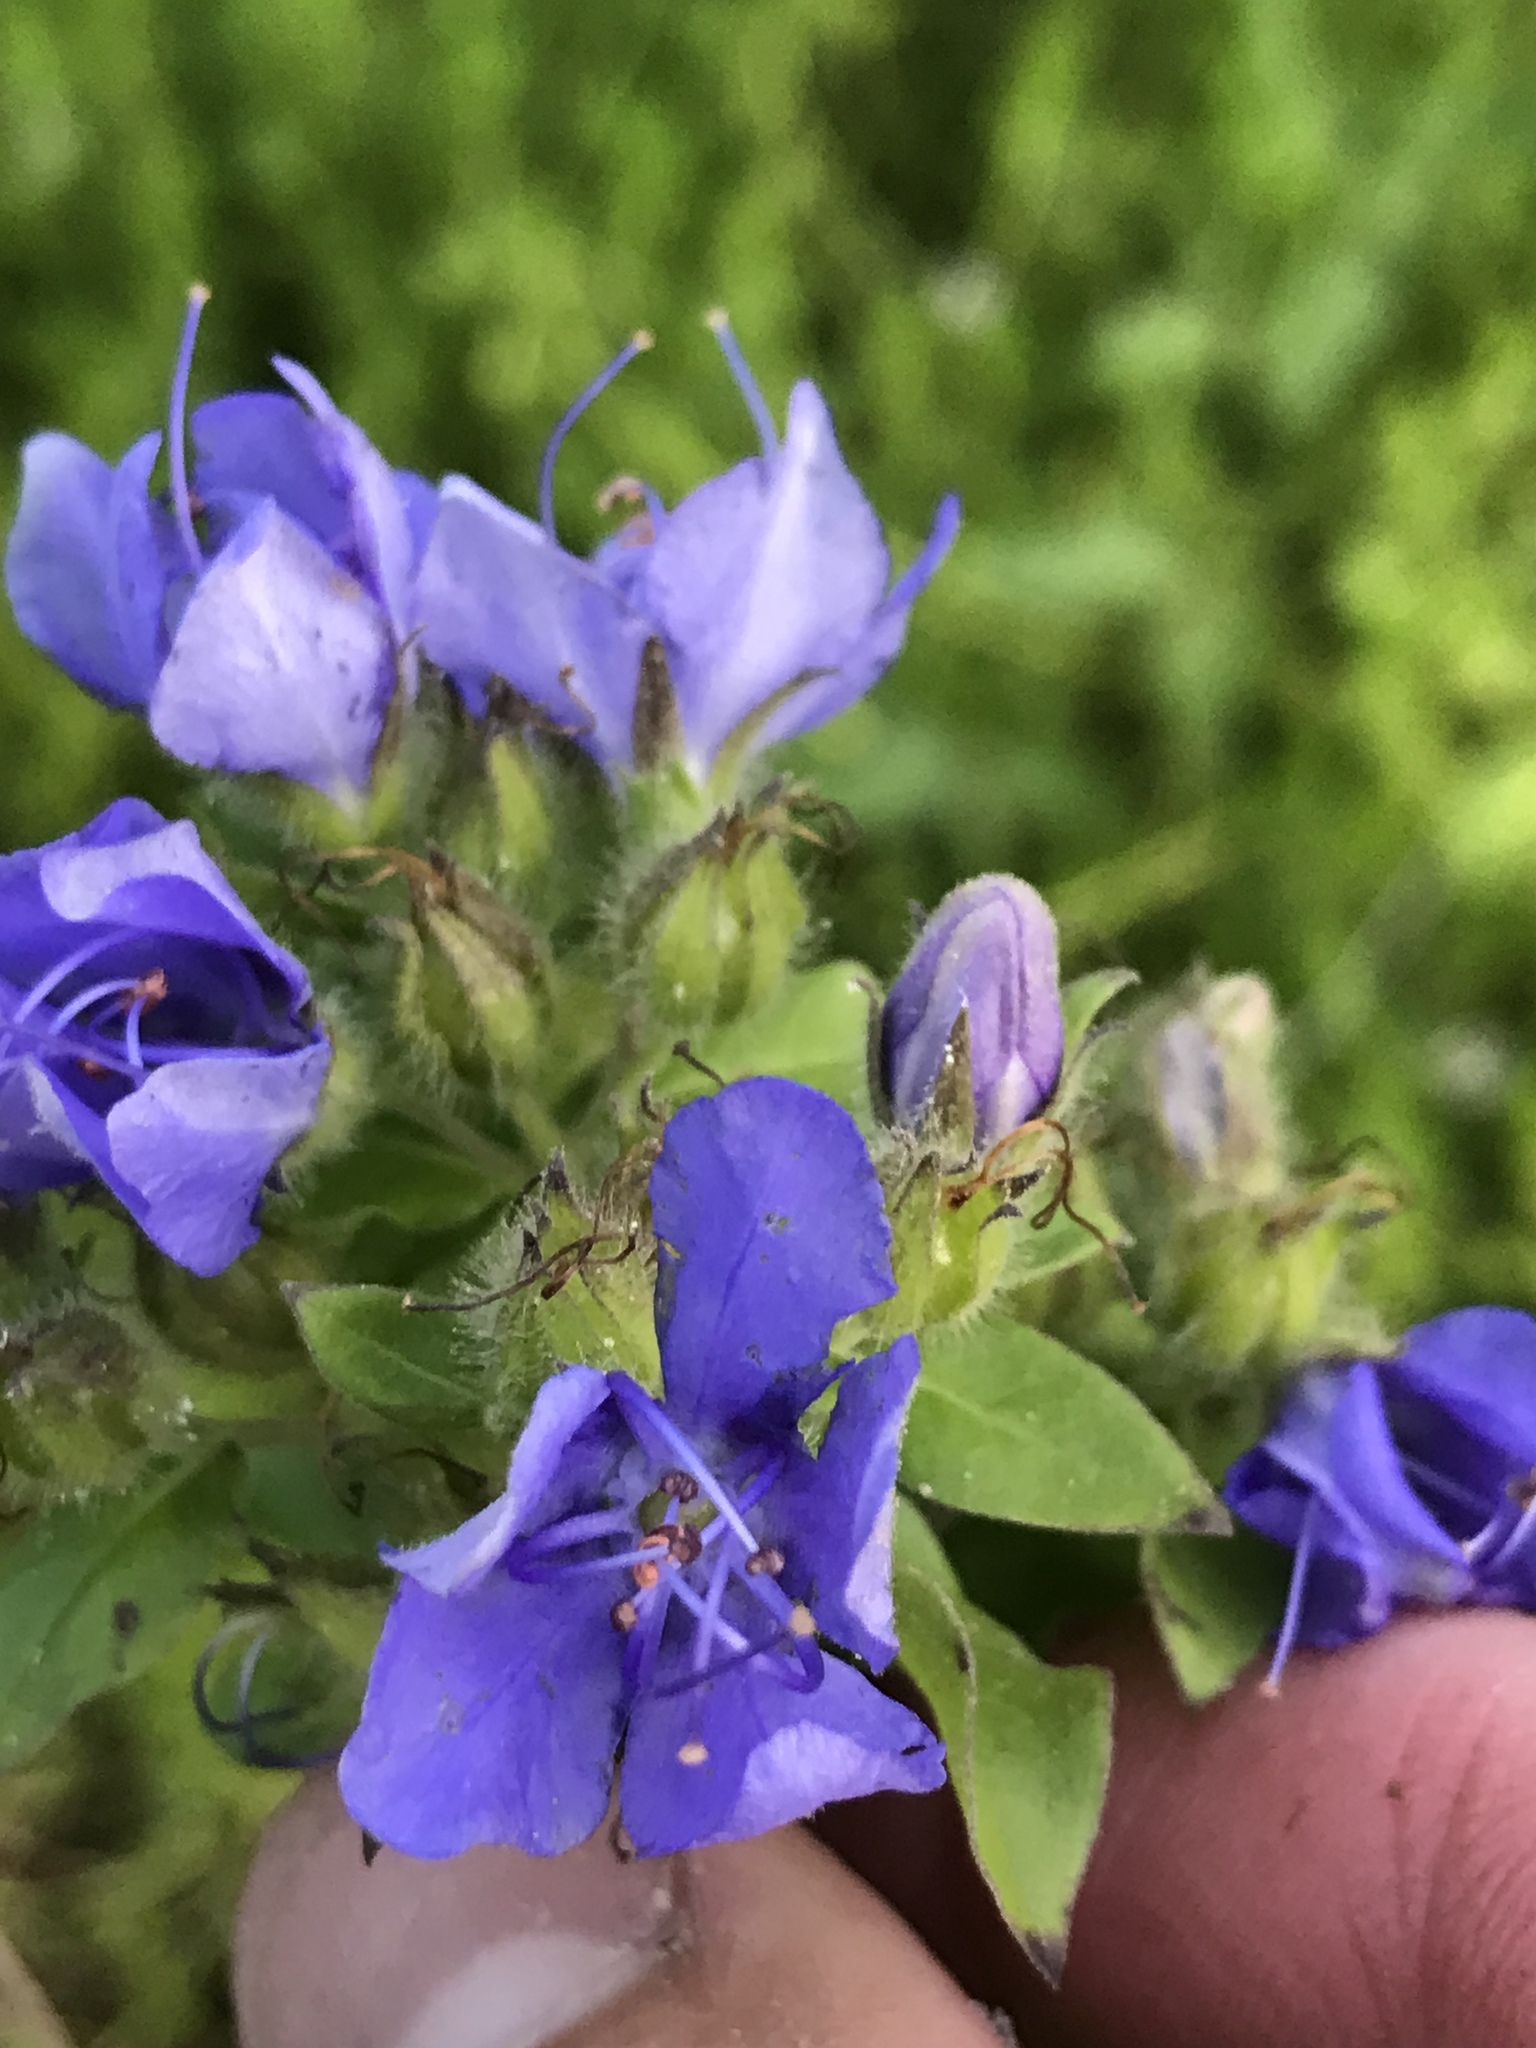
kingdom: Plantae
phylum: Tracheophyta
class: Magnoliopsida
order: Solanales
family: Hydroleaceae
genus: Hydrolea
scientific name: Hydrolea ovata
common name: Ovate false fiddleleaf
